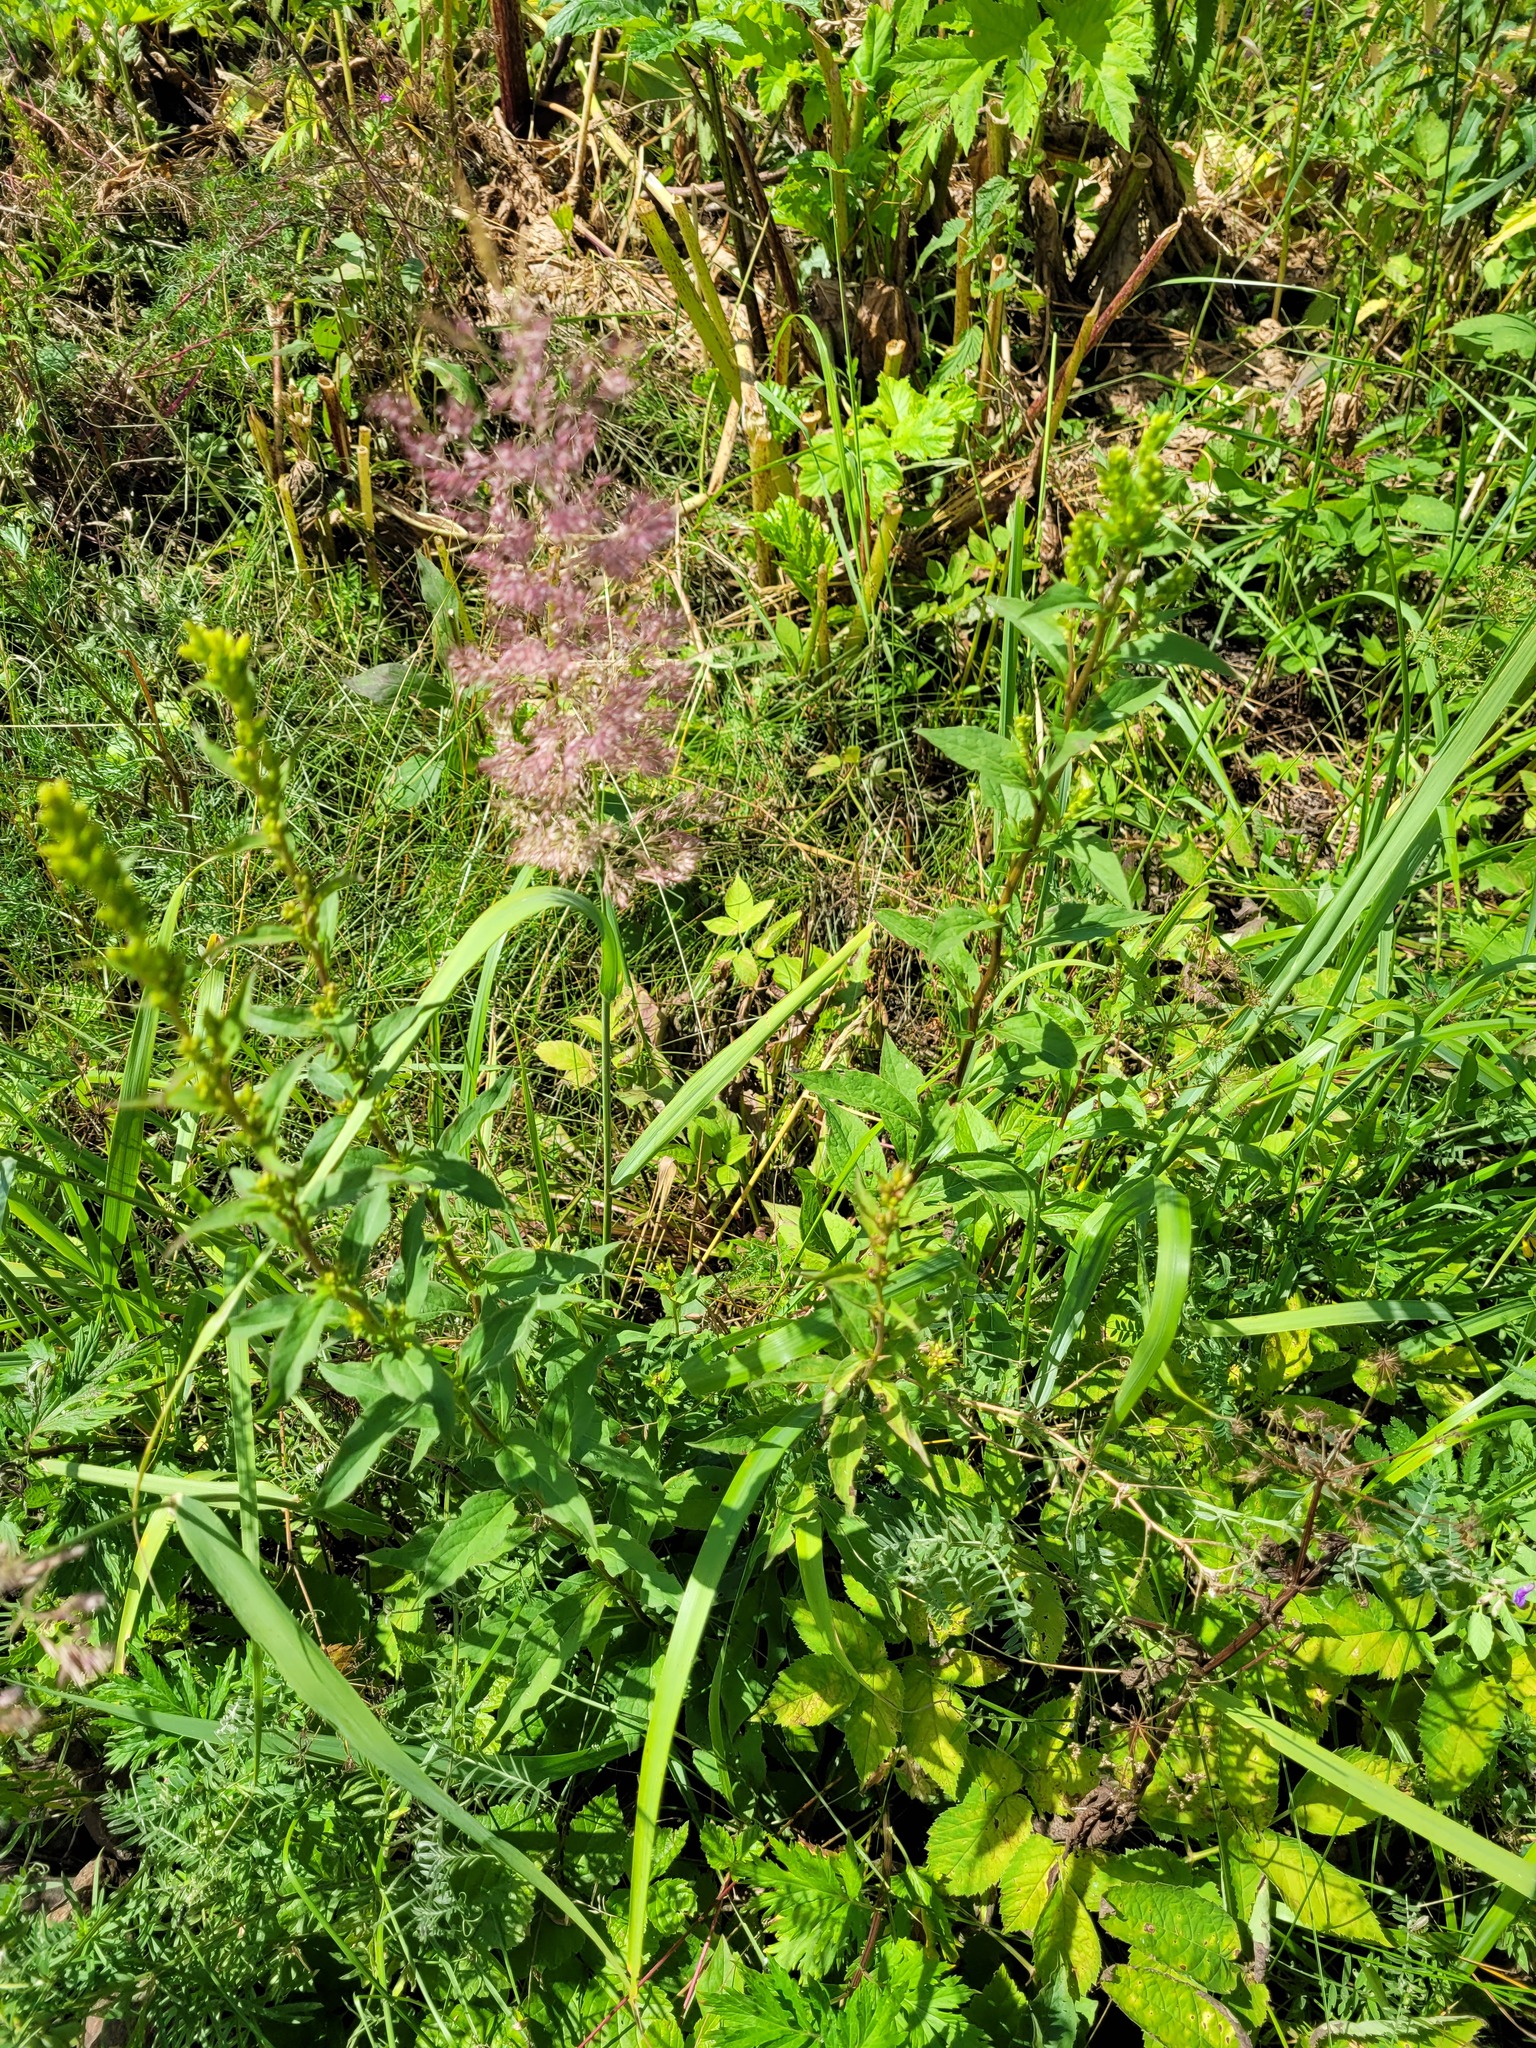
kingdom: Plantae
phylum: Tracheophyta
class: Magnoliopsida
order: Asterales
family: Asteraceae
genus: Solidago
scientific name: Solidago virgaurea
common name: Goldenrod
